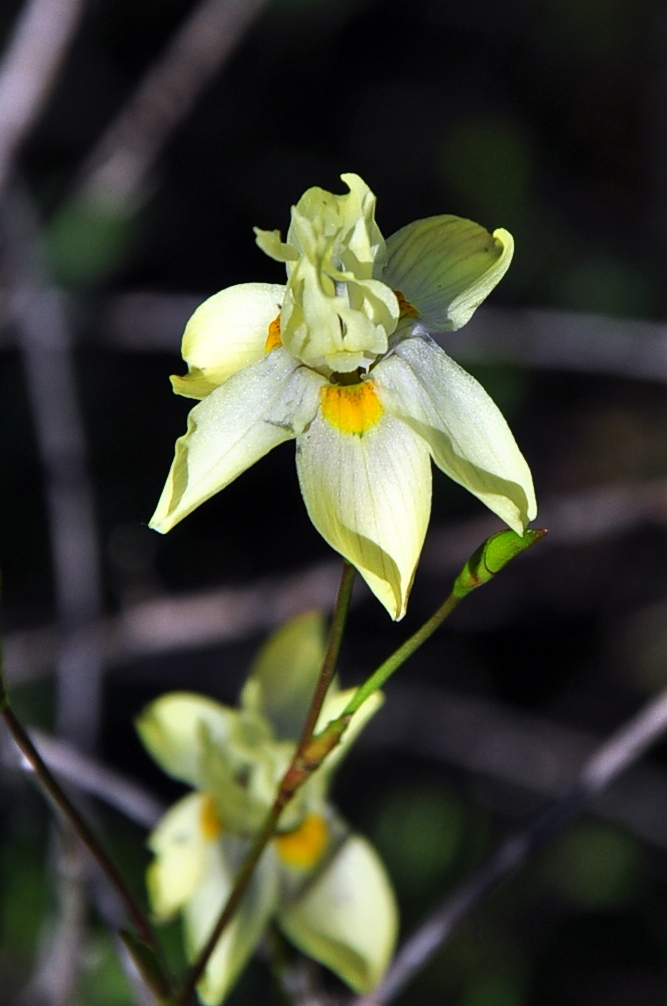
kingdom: Plantae
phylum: Tracheophyta
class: Liliopsida
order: Asparagales
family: Iridaceae
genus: Moraea
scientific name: Moraea gawleri
